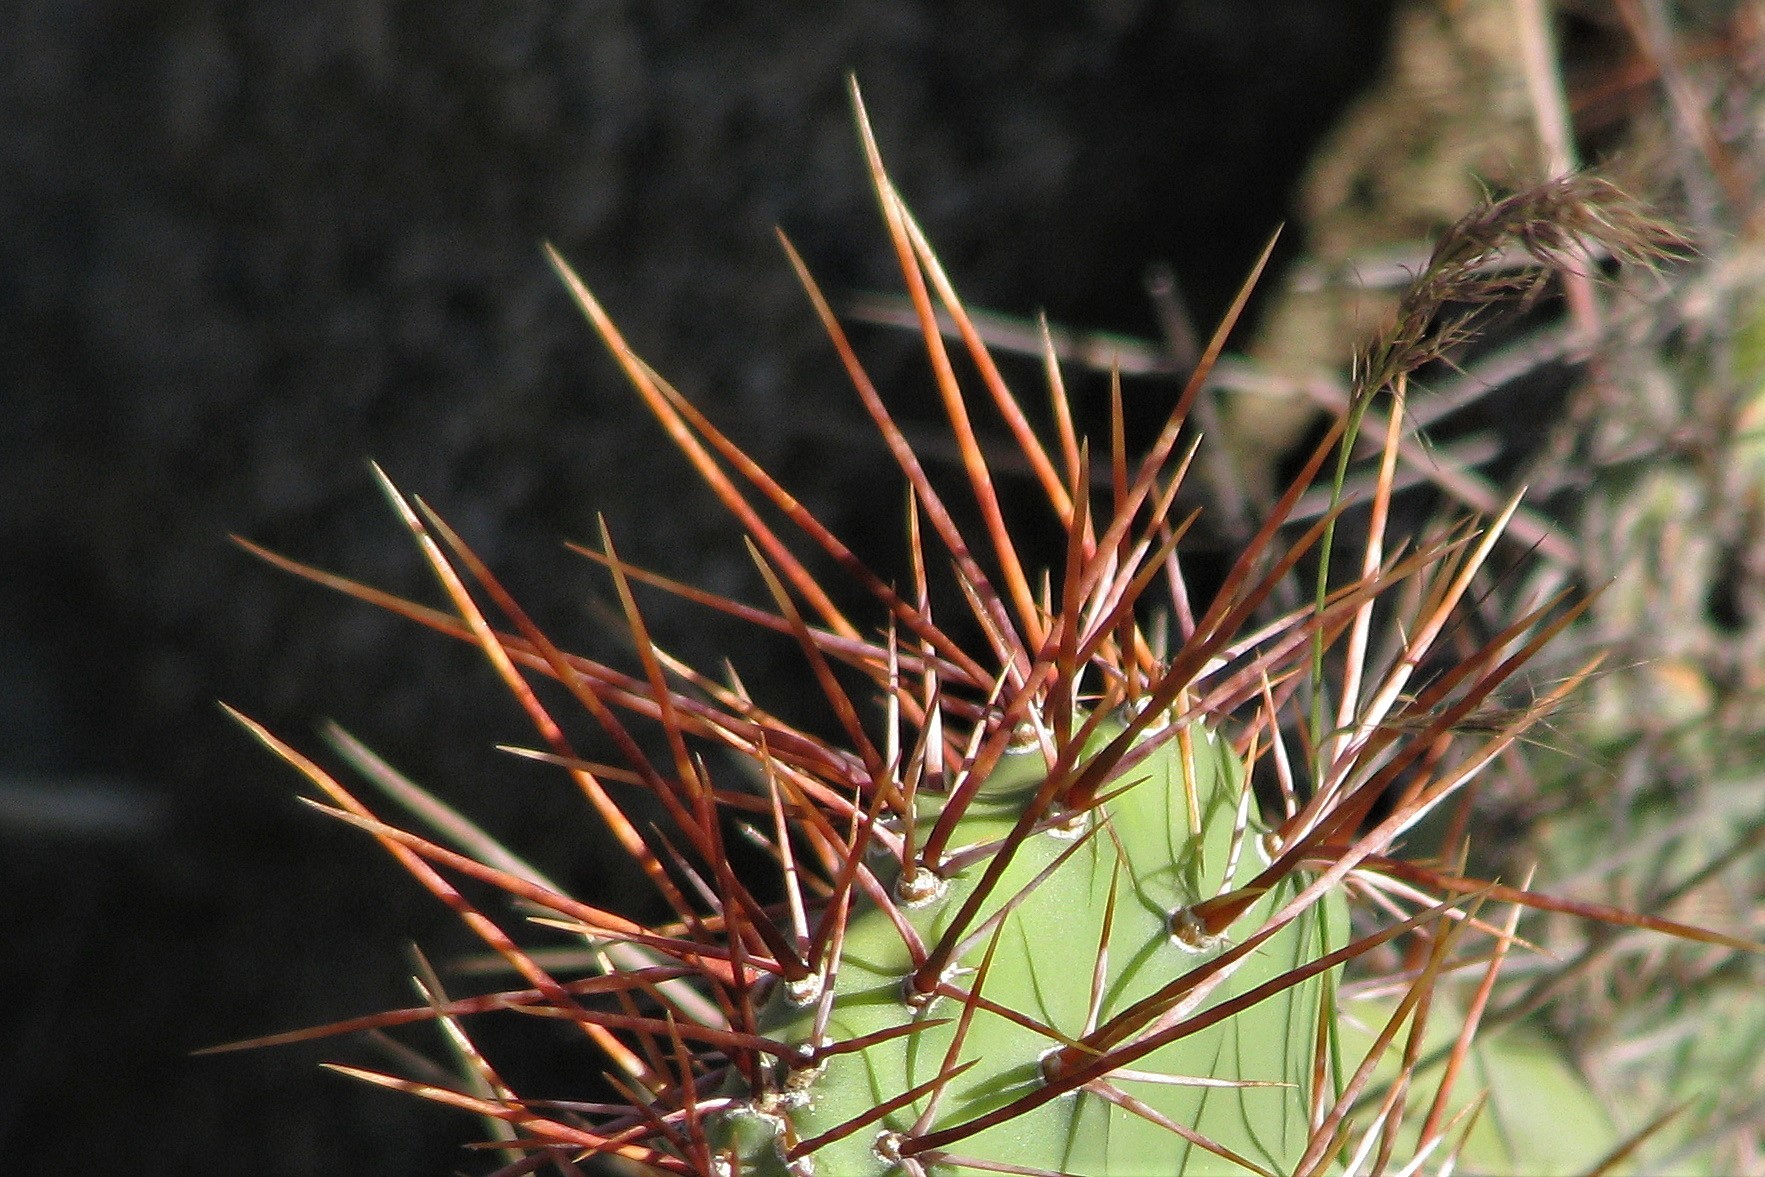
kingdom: Plantae
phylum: Tracheophyta
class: Magnoliopsida
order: Caryophyllales
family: Cactaceae
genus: Opuntia
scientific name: Opuntia sulphurea
